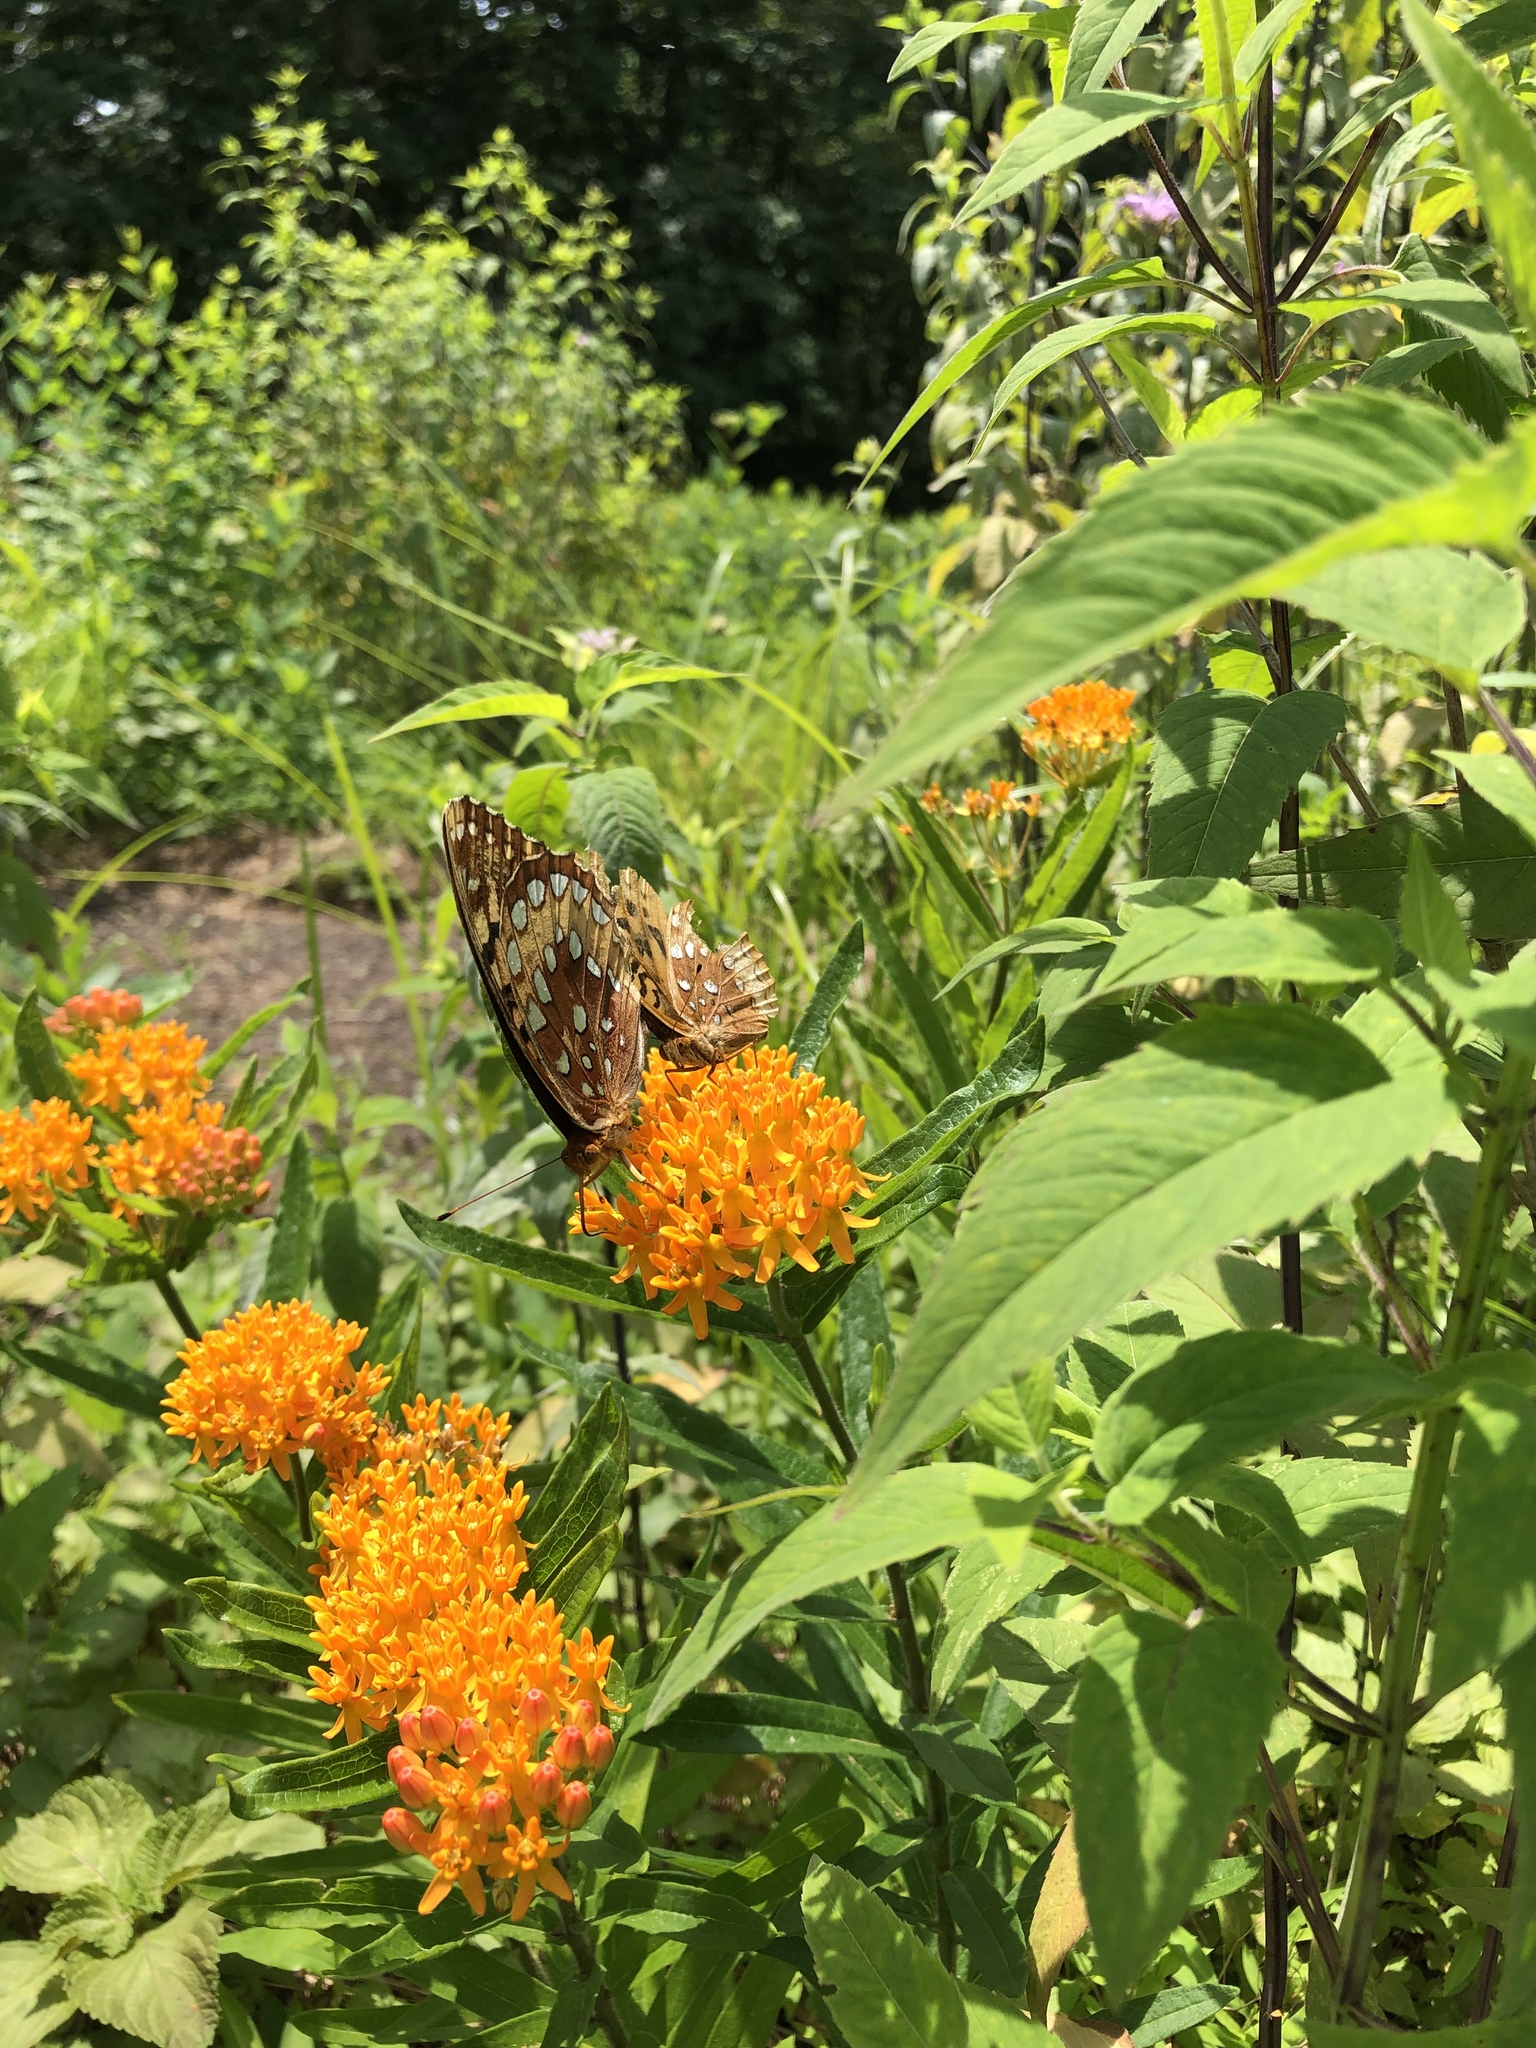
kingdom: Animalia
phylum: Arthropoda
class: Insecta
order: Lepidoptera
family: Nymphalidae
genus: Speyeria
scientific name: Speyeria cybele
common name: Great spangled fritillary
